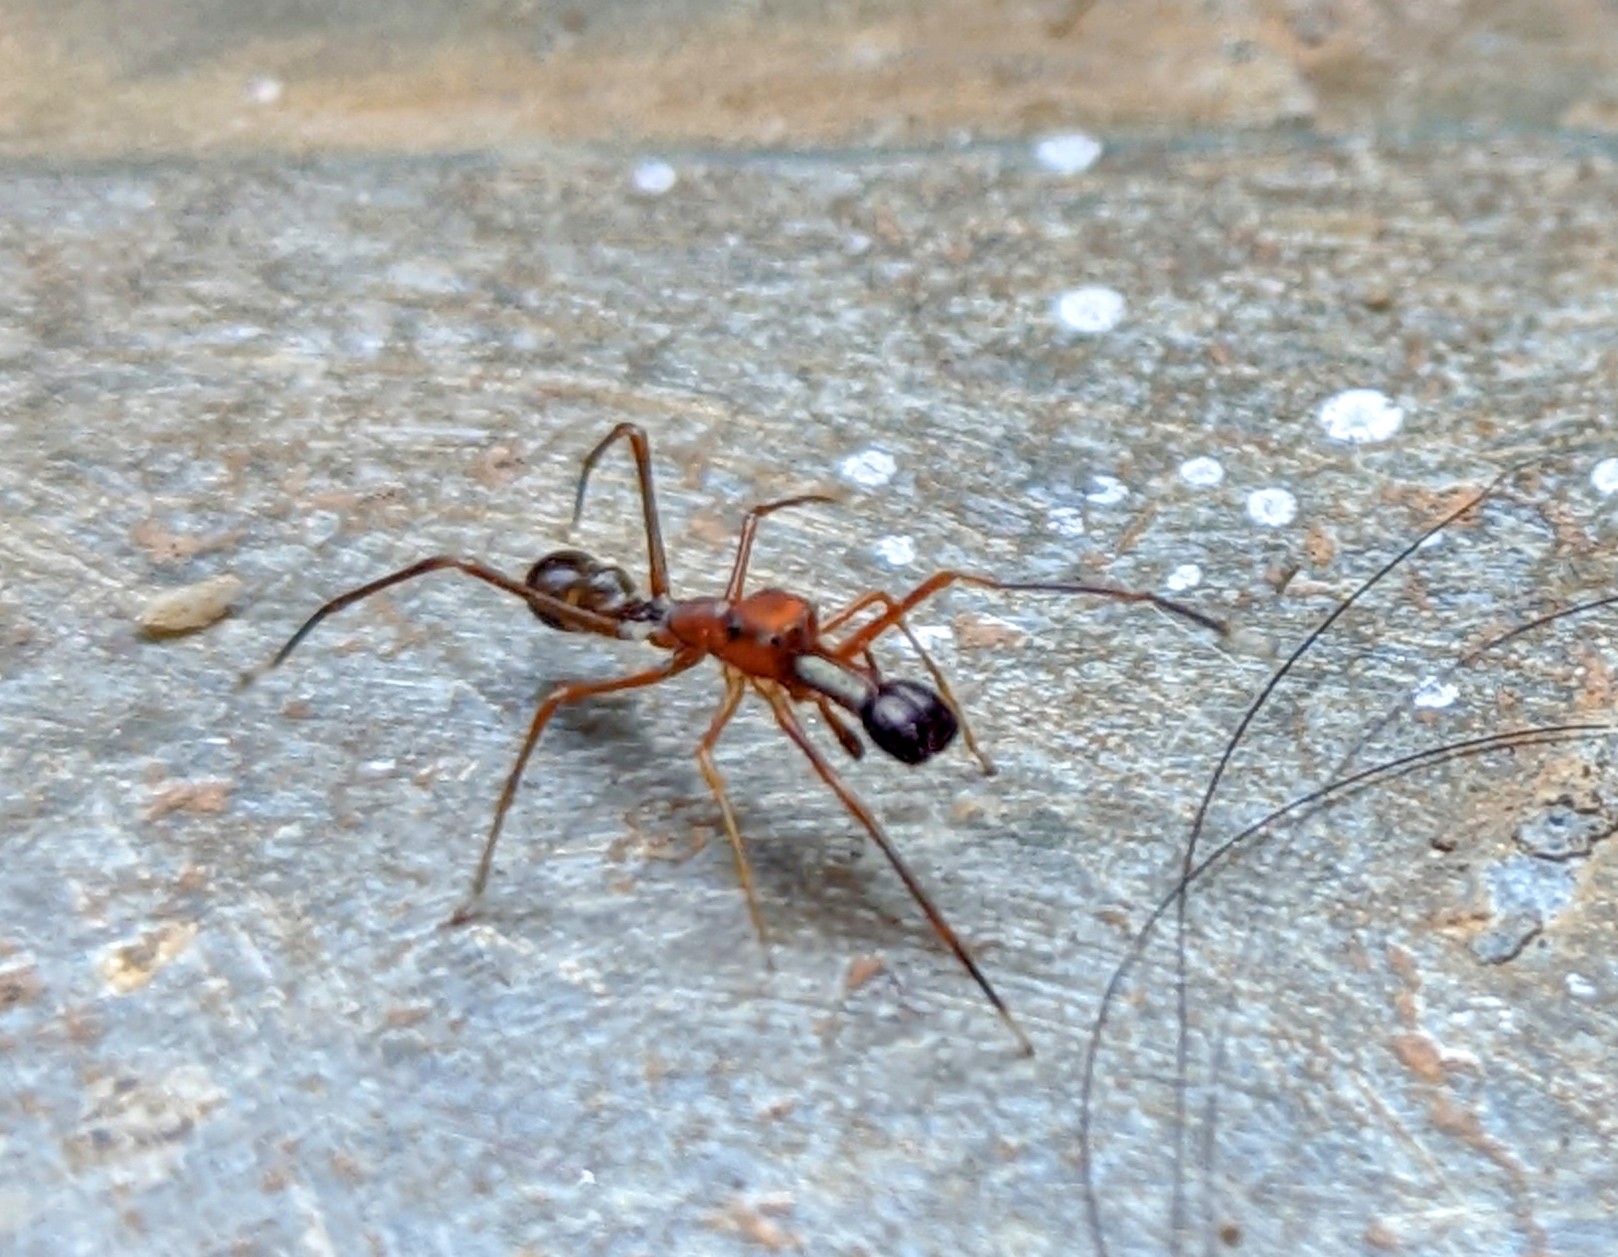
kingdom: Animalia
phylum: Arthropoda
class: Arachnida
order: Araneae
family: Salticidae
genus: Myrmaplata
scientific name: Myrmaplata plataleoides
